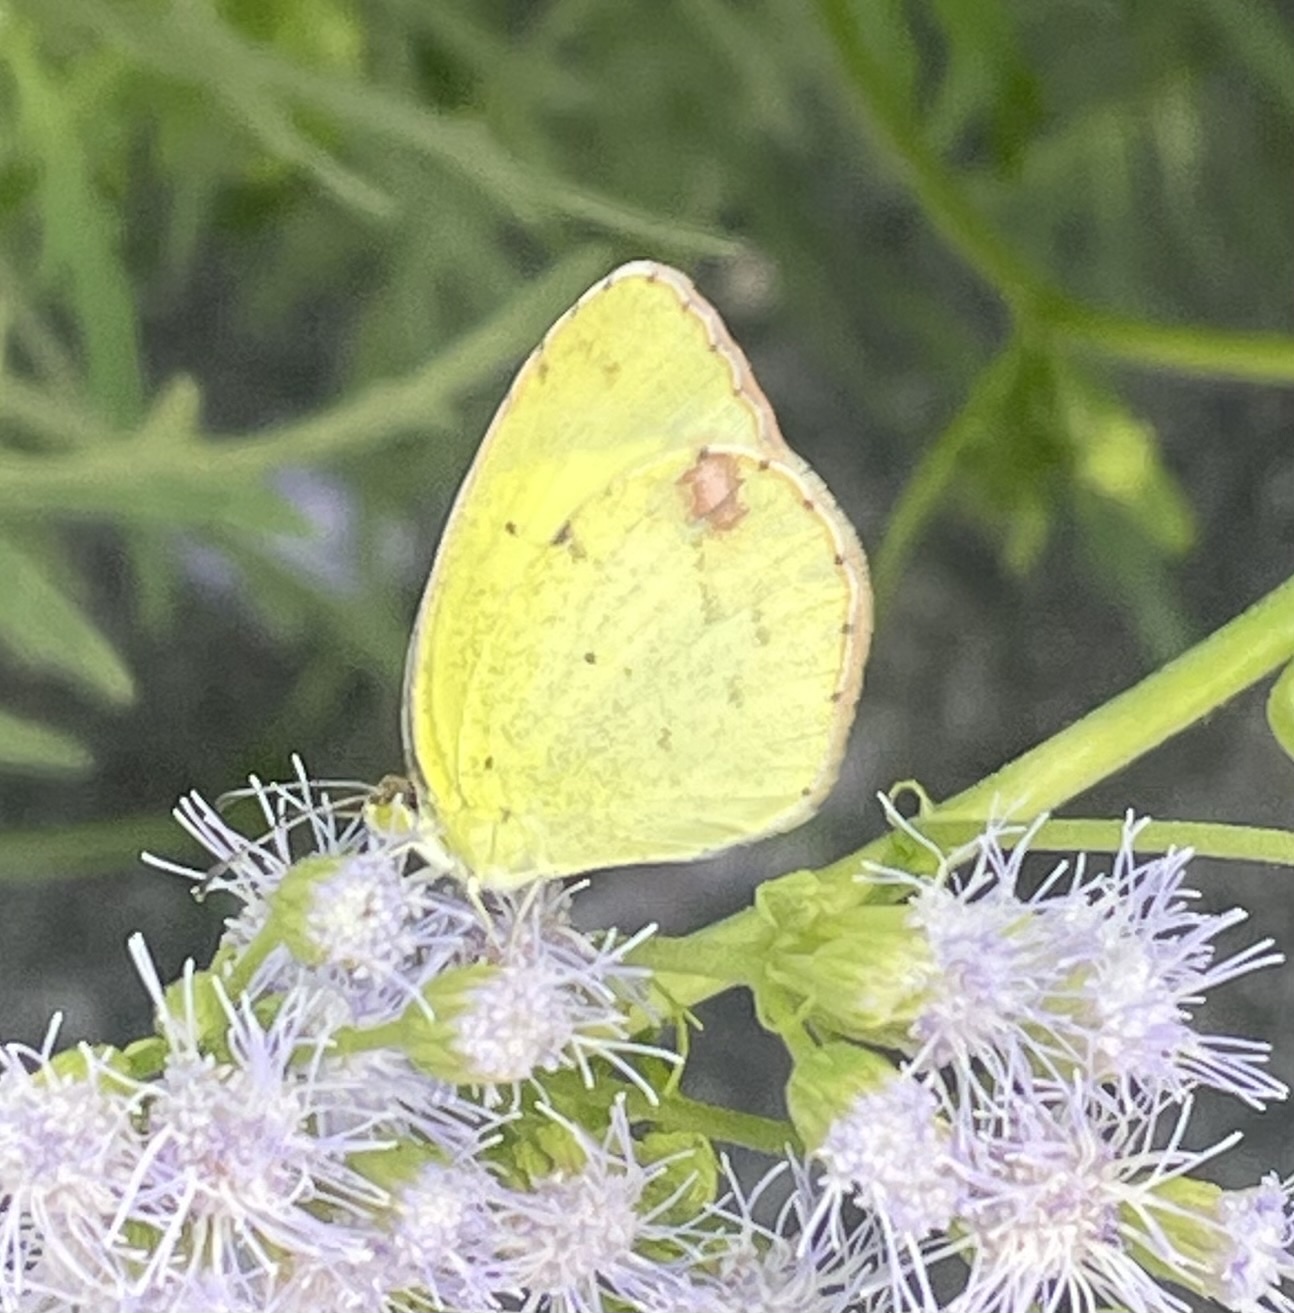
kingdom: Animalia
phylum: Arthropoda
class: Insecta
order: Lepidoptera
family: Pieridae
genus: Pyrisitia
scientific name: Pyrisitia lisa
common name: Little yellow
